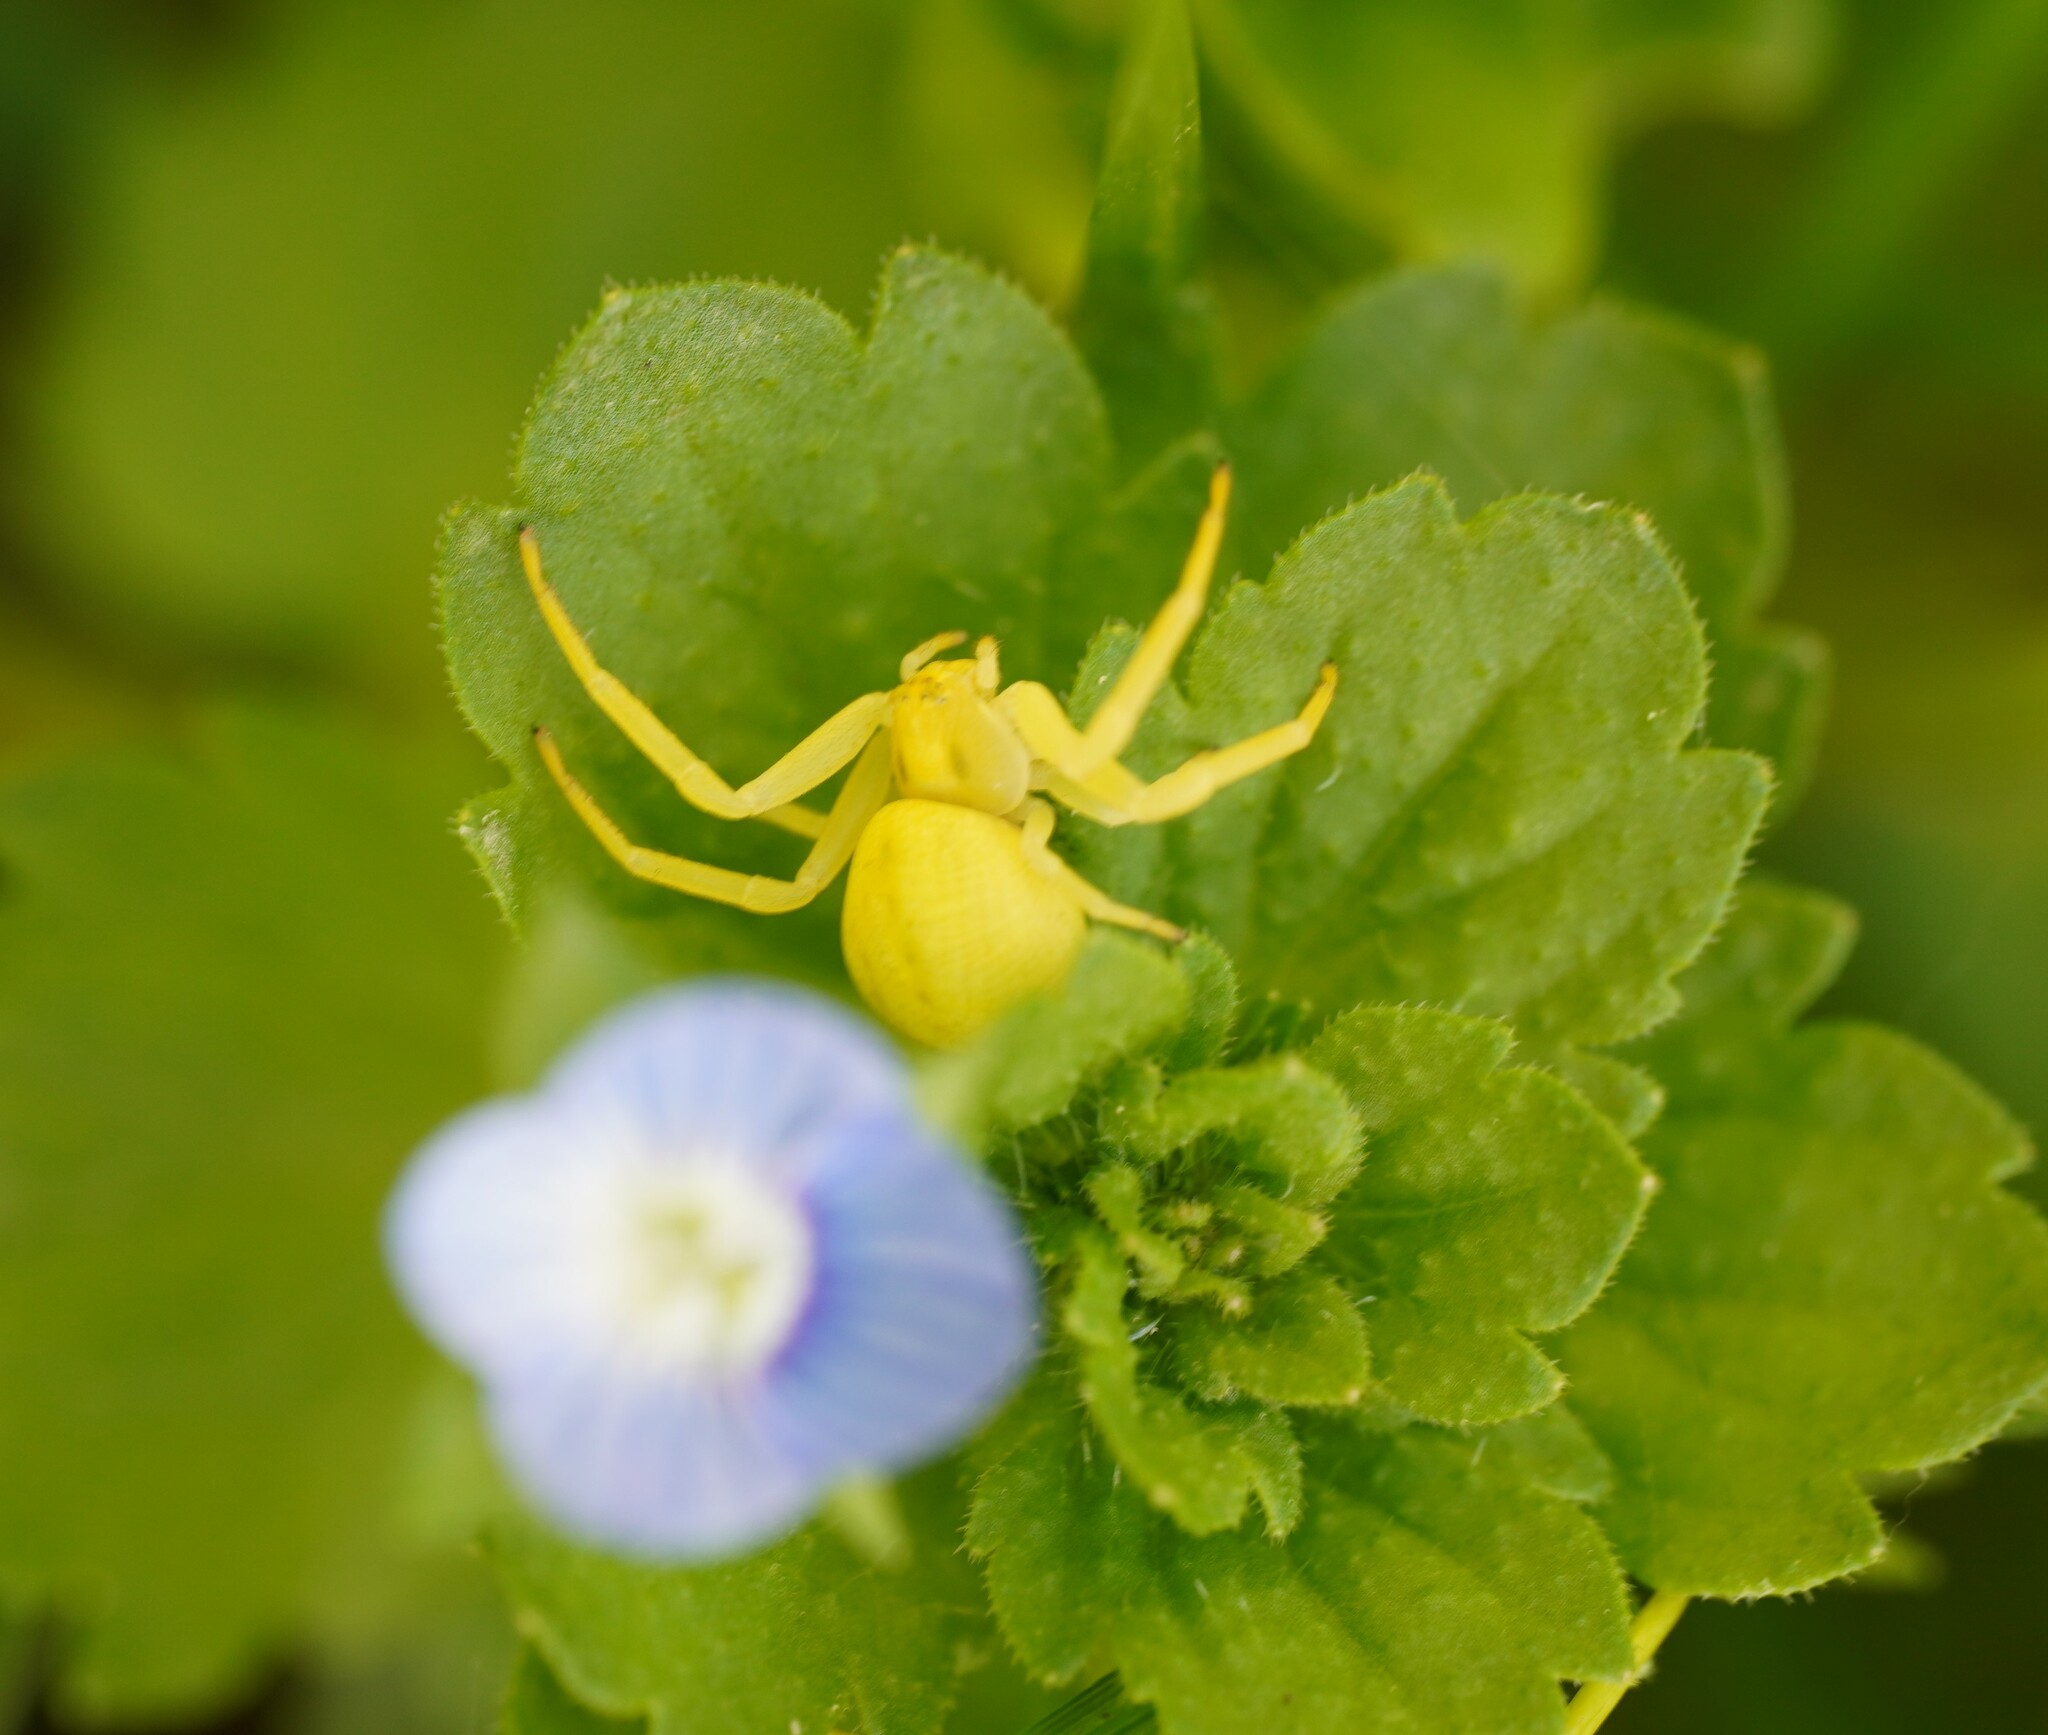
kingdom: Animalia
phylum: Arthropoda
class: Arachnida
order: Araneae
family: Thomisidae
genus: Misumena
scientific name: Misumena vatia
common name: Goldenrod crab spider
